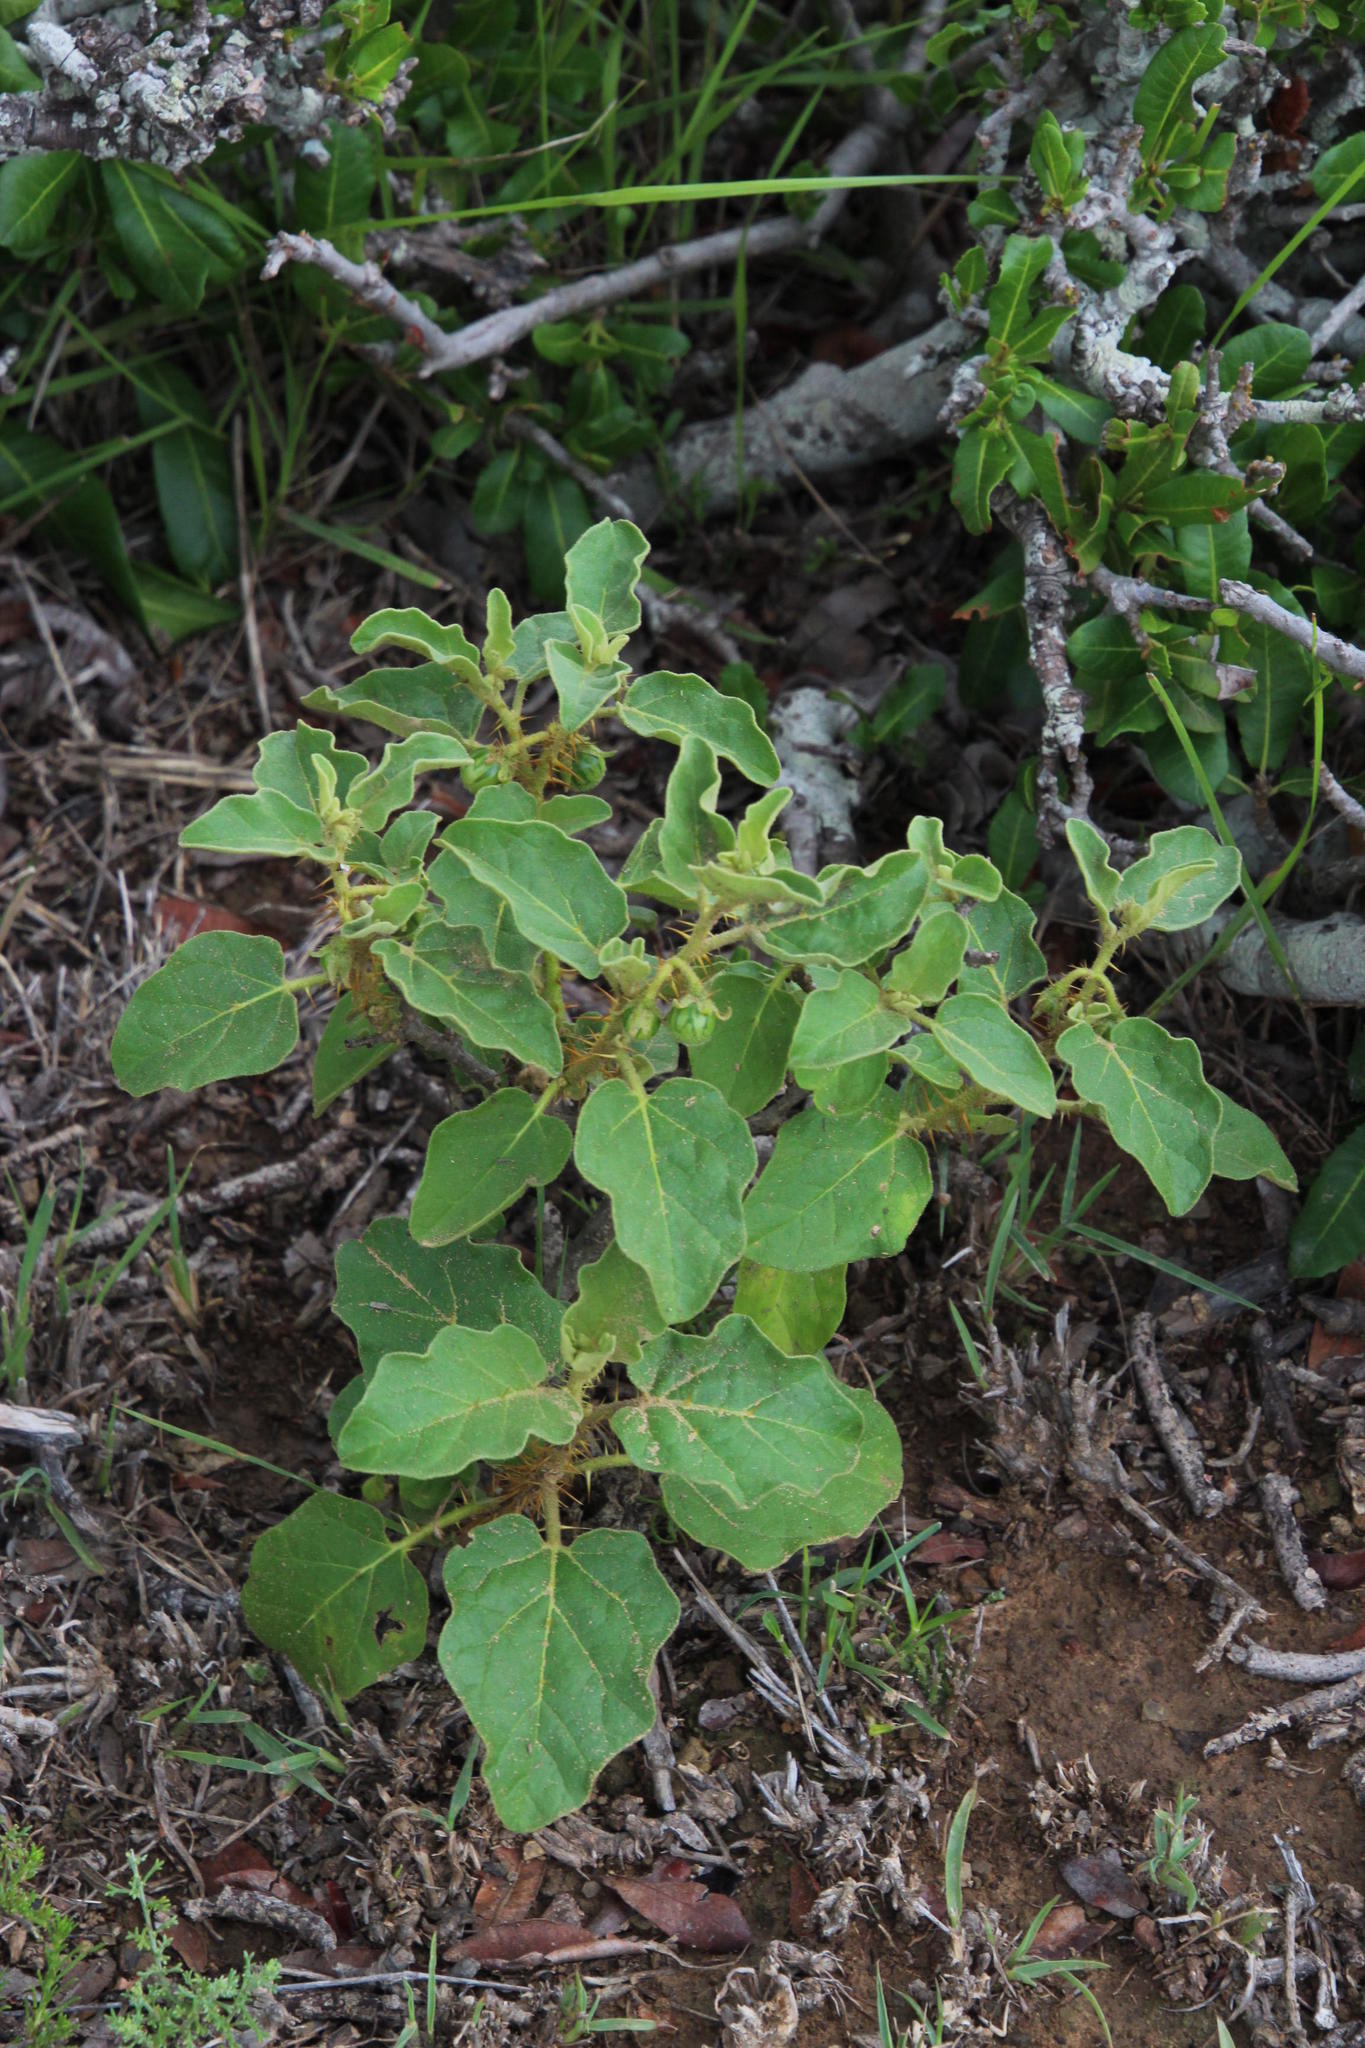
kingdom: Plantae
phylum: Tracheophyta
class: Magnoliopsida
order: Solanales
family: Solanaceae
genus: Solanum
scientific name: Solanum tomentosum
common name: Wild aubergine
